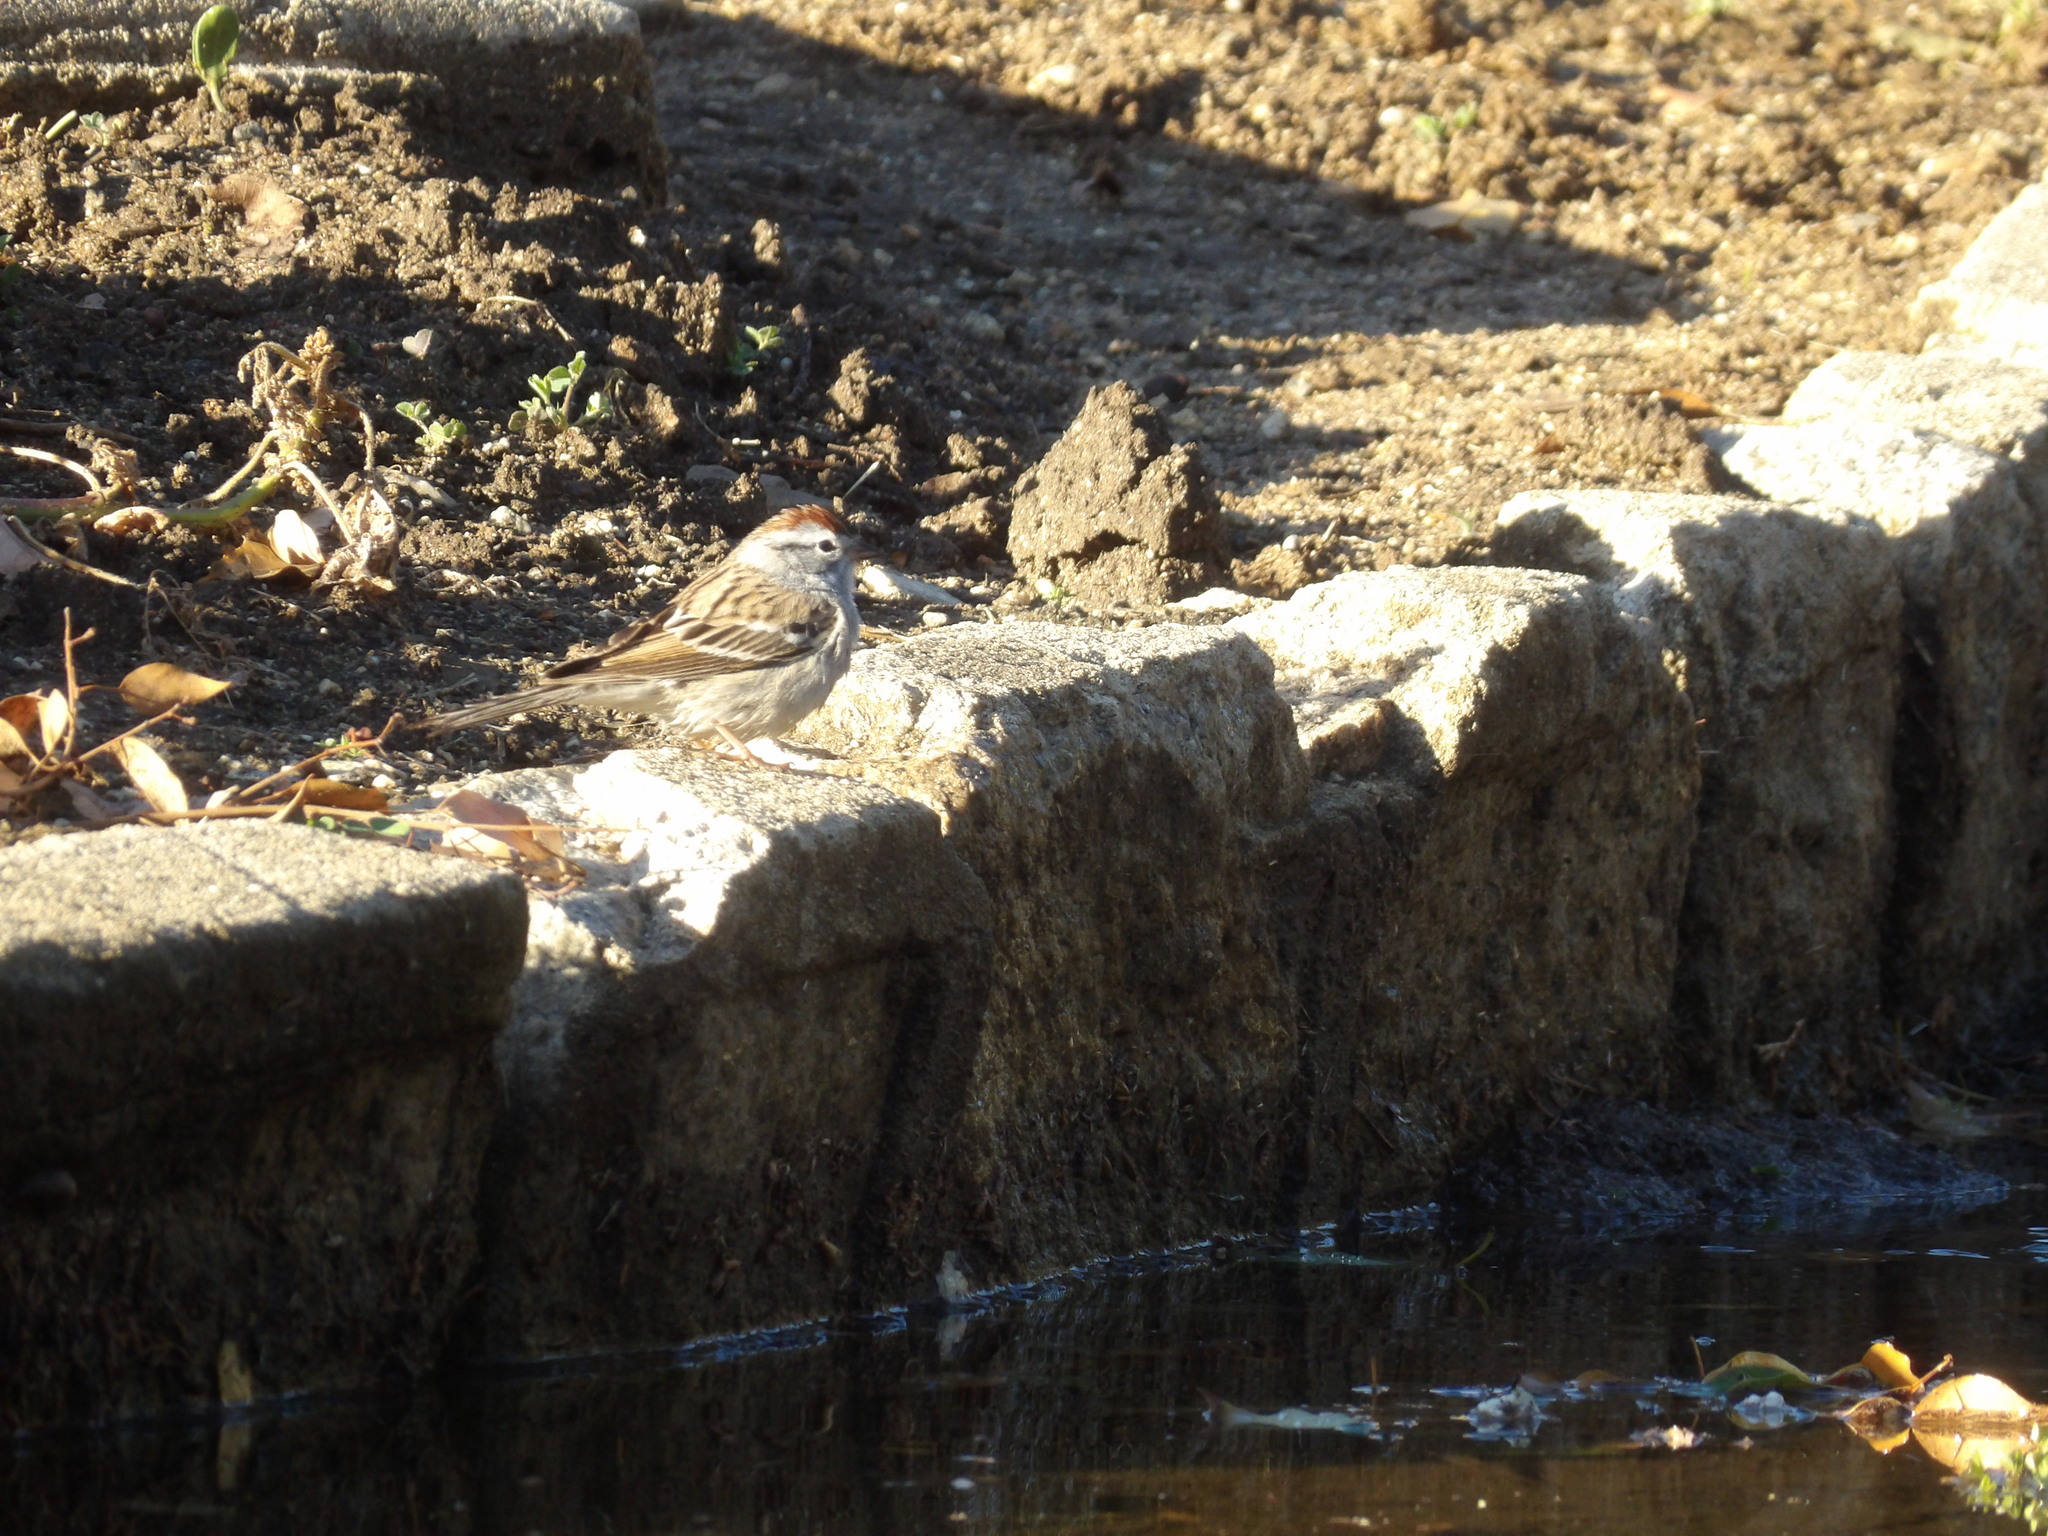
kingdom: Animalia
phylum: Chordata
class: Aves
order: Passeriformes
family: Passerellidae
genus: Spizella
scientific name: Spizella passerina
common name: Chipping sparrow
